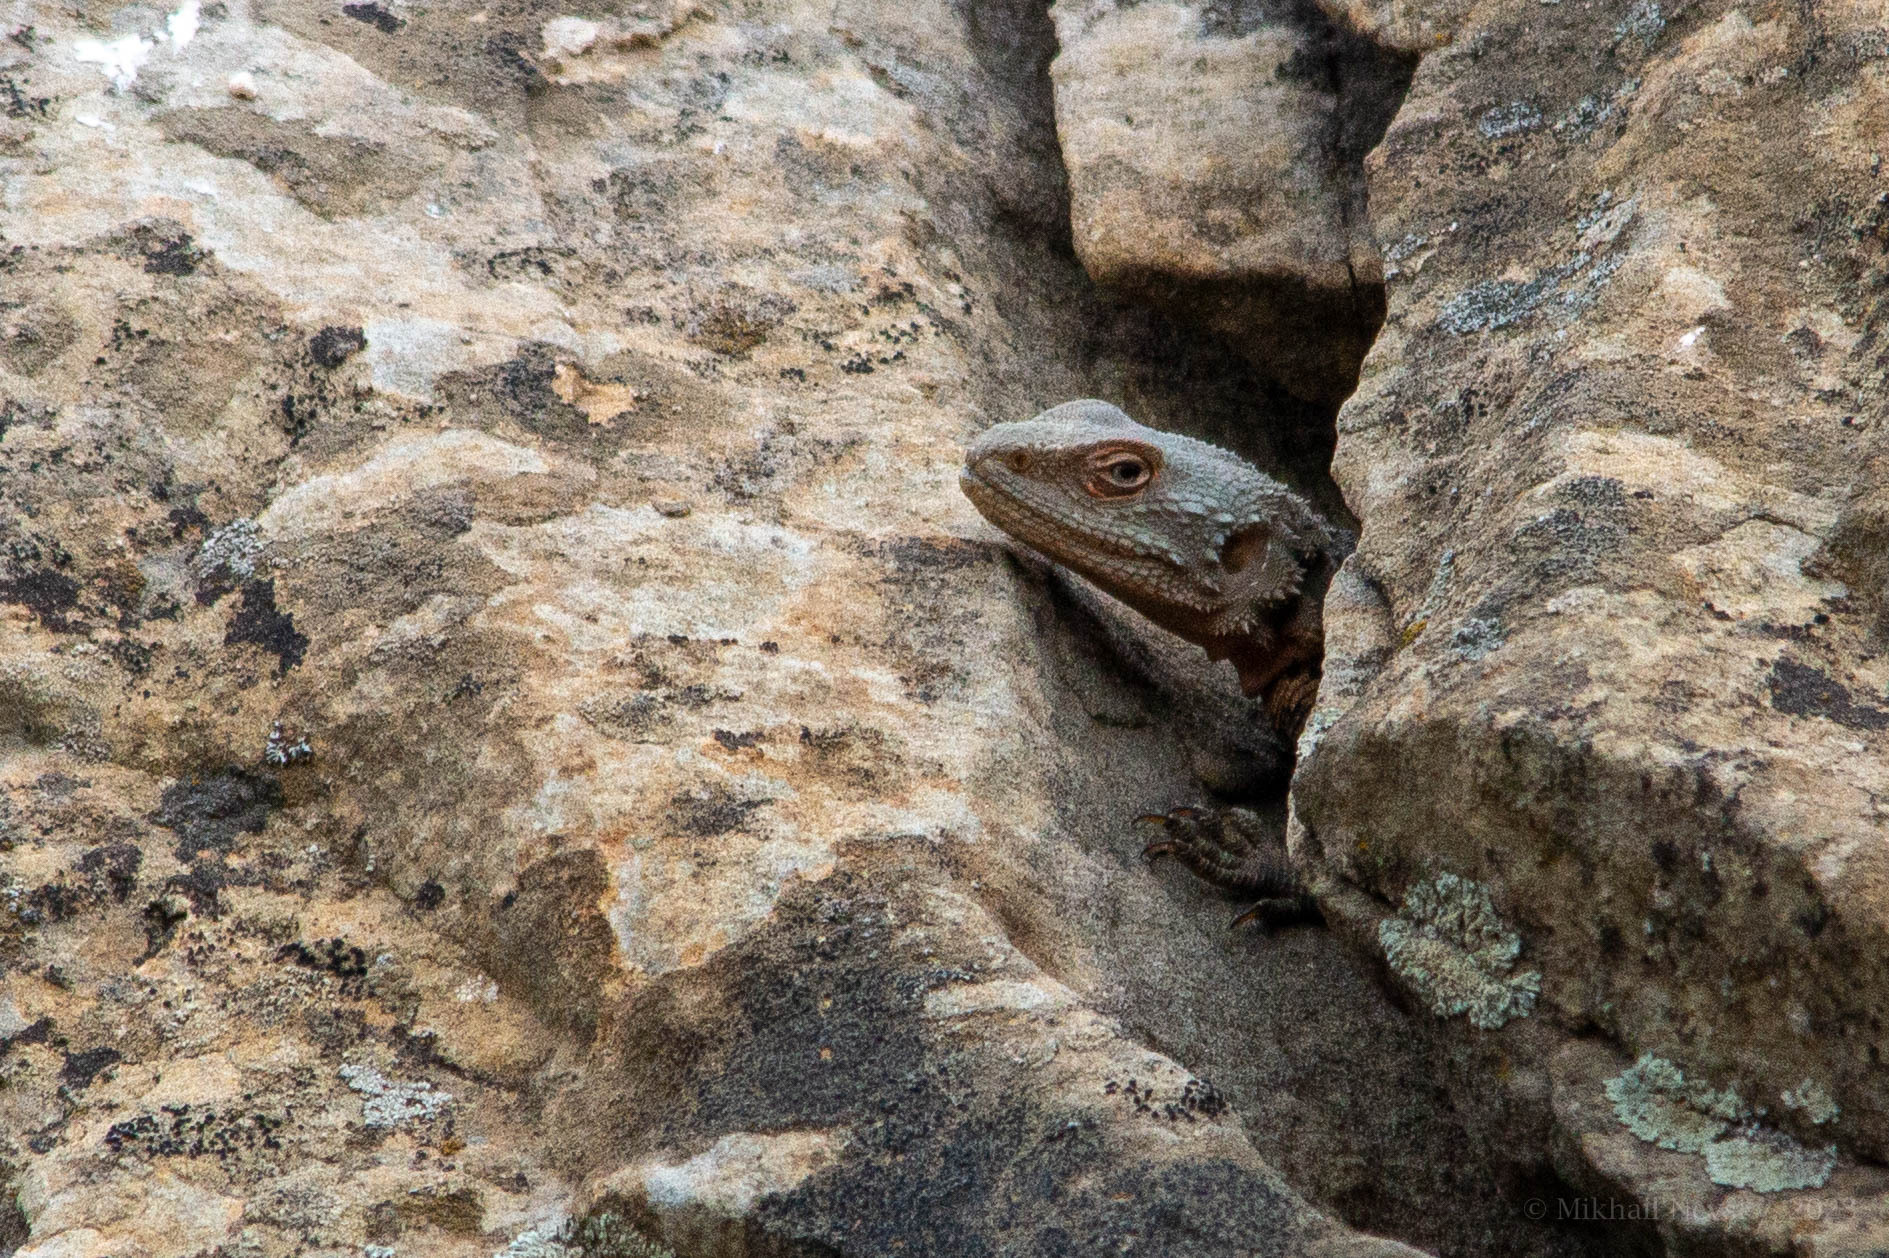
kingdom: Animalia
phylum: Chordata
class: Squamata
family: Agamidae
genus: Paralaudakia
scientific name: Paralaudakia caucasia
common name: Caucasian agama
